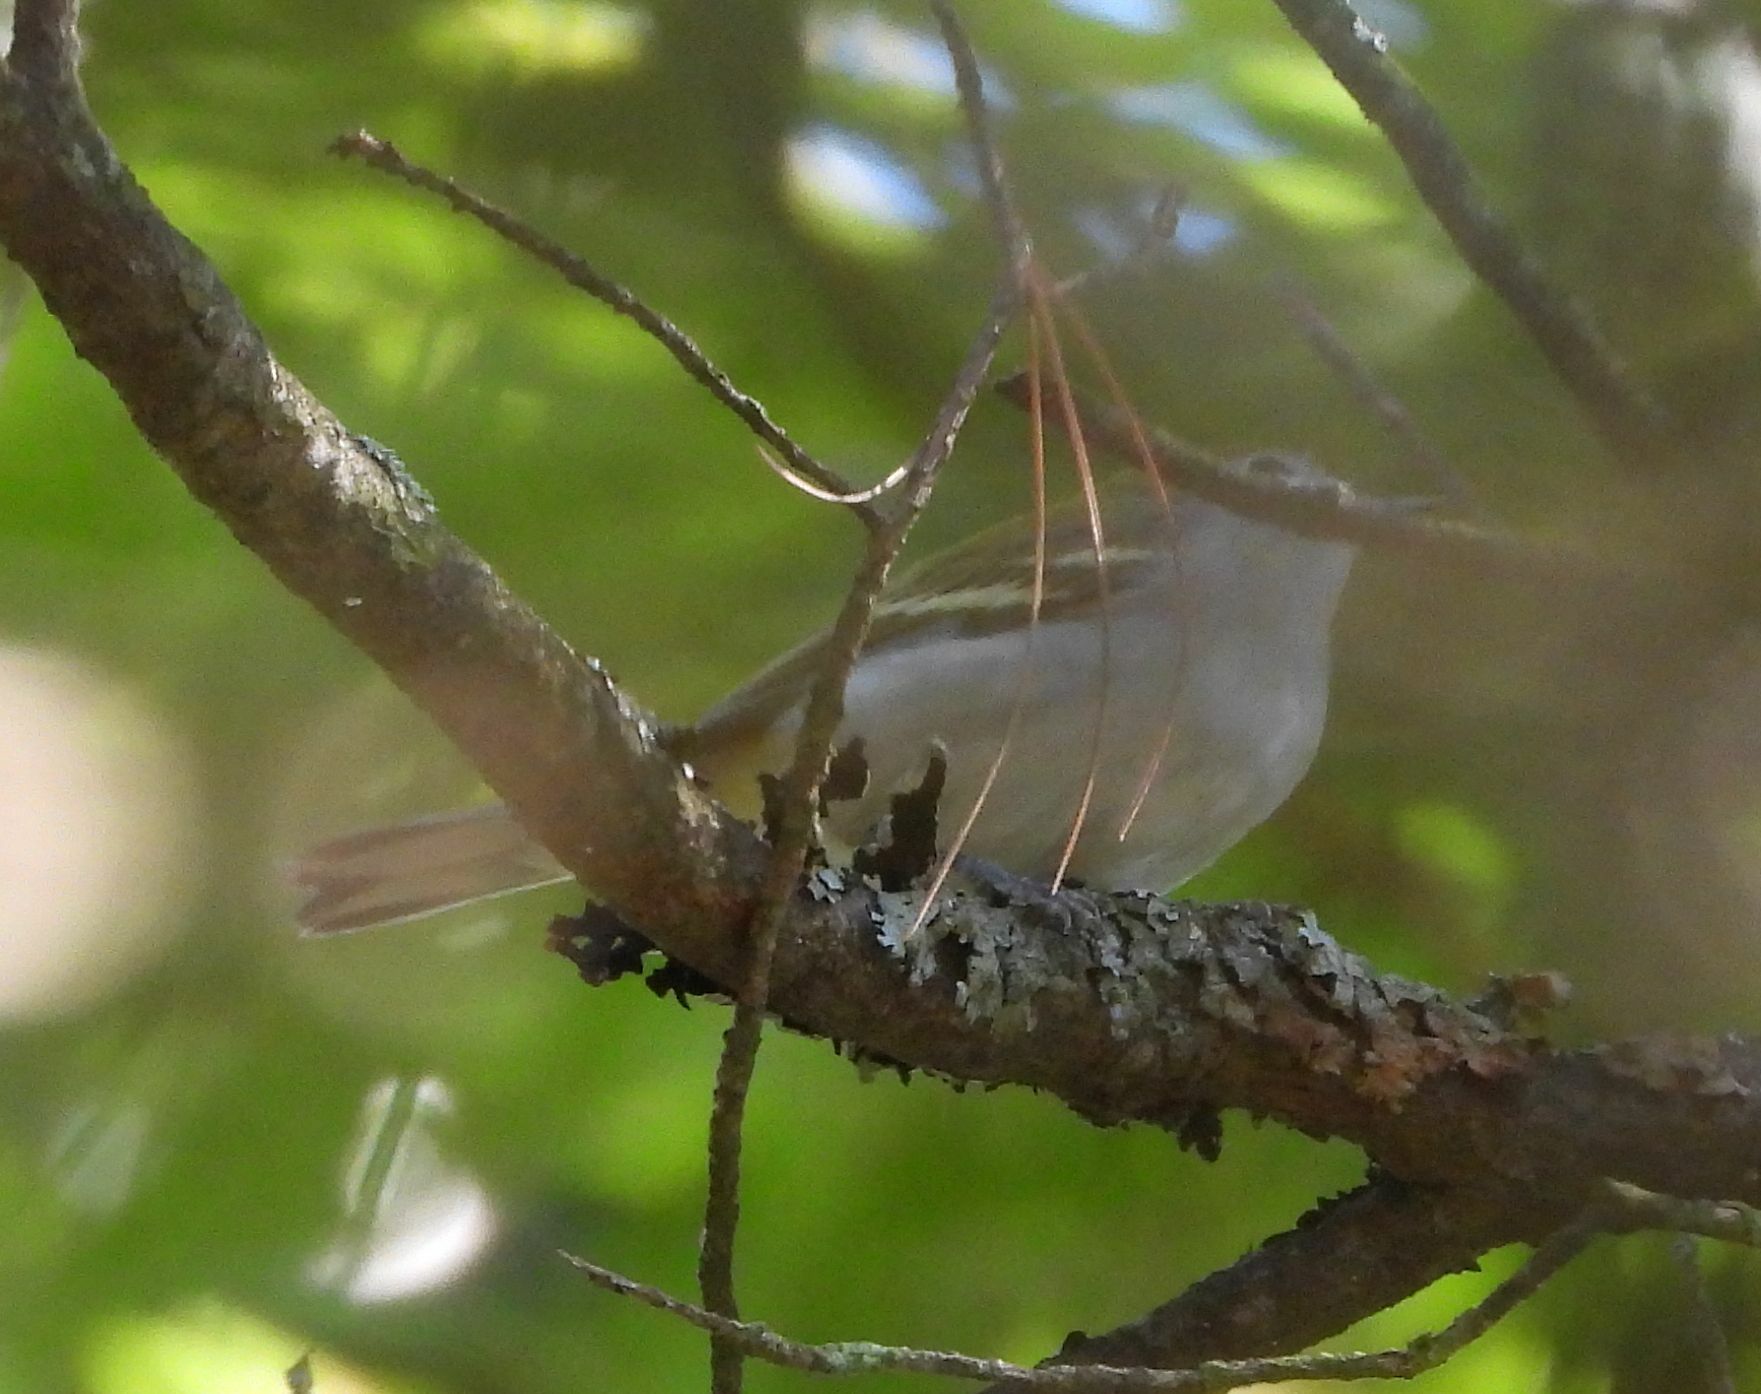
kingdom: Animalia
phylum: Chordata
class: Aves
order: Passeriformes
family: Parulidae
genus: Setophaga
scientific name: Setophaga pensylvanica
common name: Chestnut-sided warbler
